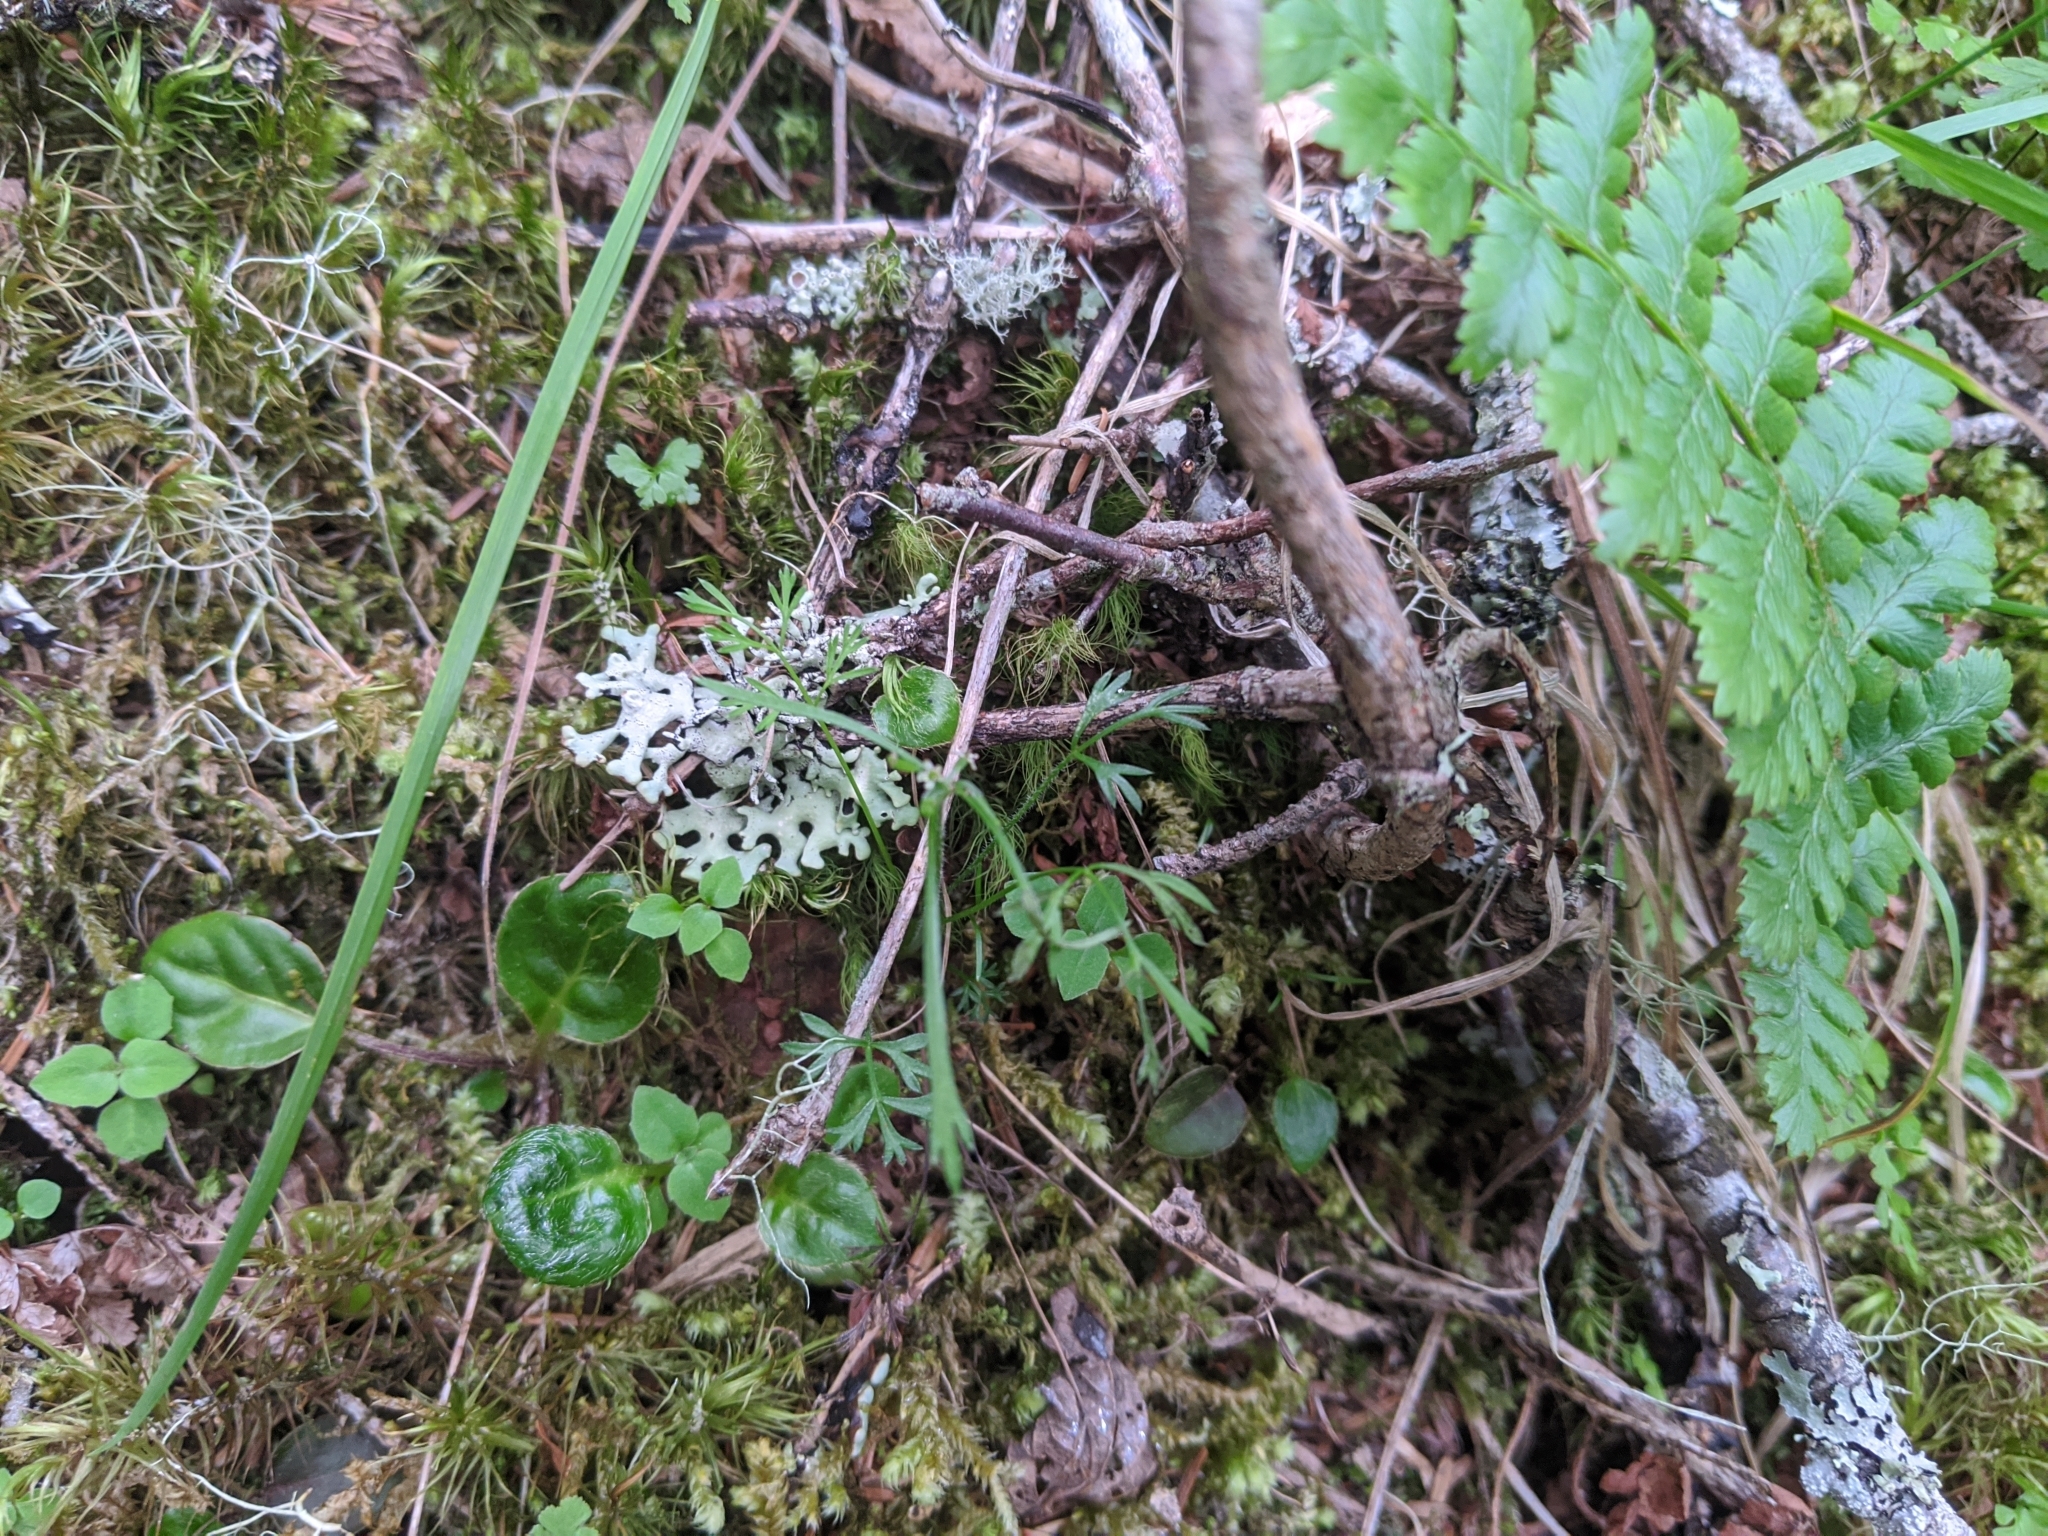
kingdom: Plantae
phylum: Tracheophyta
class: Magnoliopsida
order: Apiales
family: Apiaceae
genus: Chaerophyllum
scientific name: Chaerophyllum involucratum
